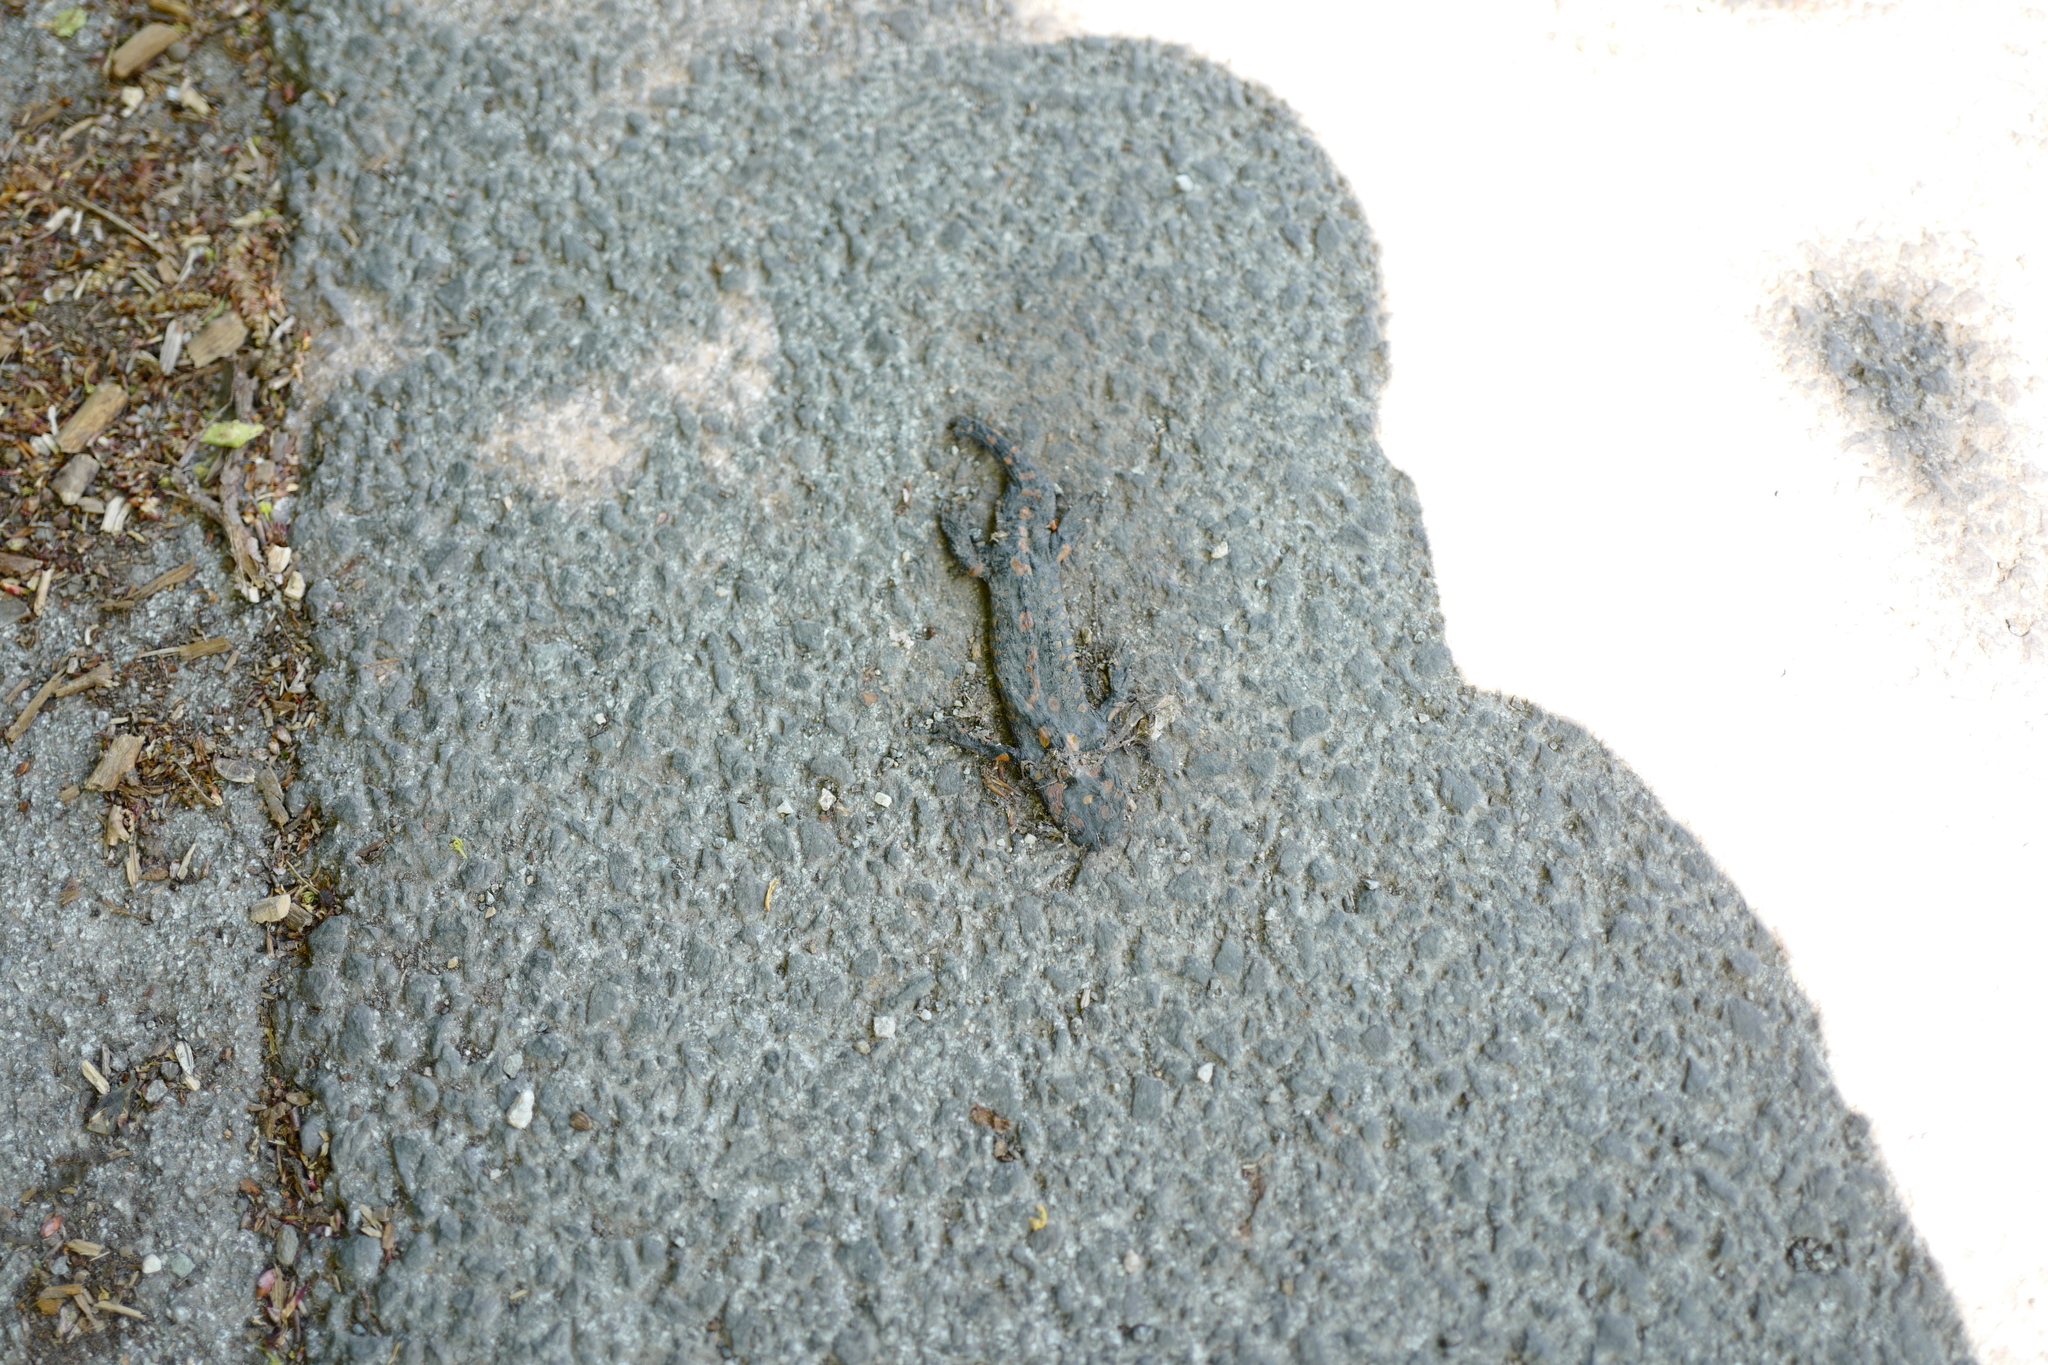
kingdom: Animalia
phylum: Chordata
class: Amphibia
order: Caudata
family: Salamandridae
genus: Salamandra
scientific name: Salamandra salamandra
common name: Fire salamander
